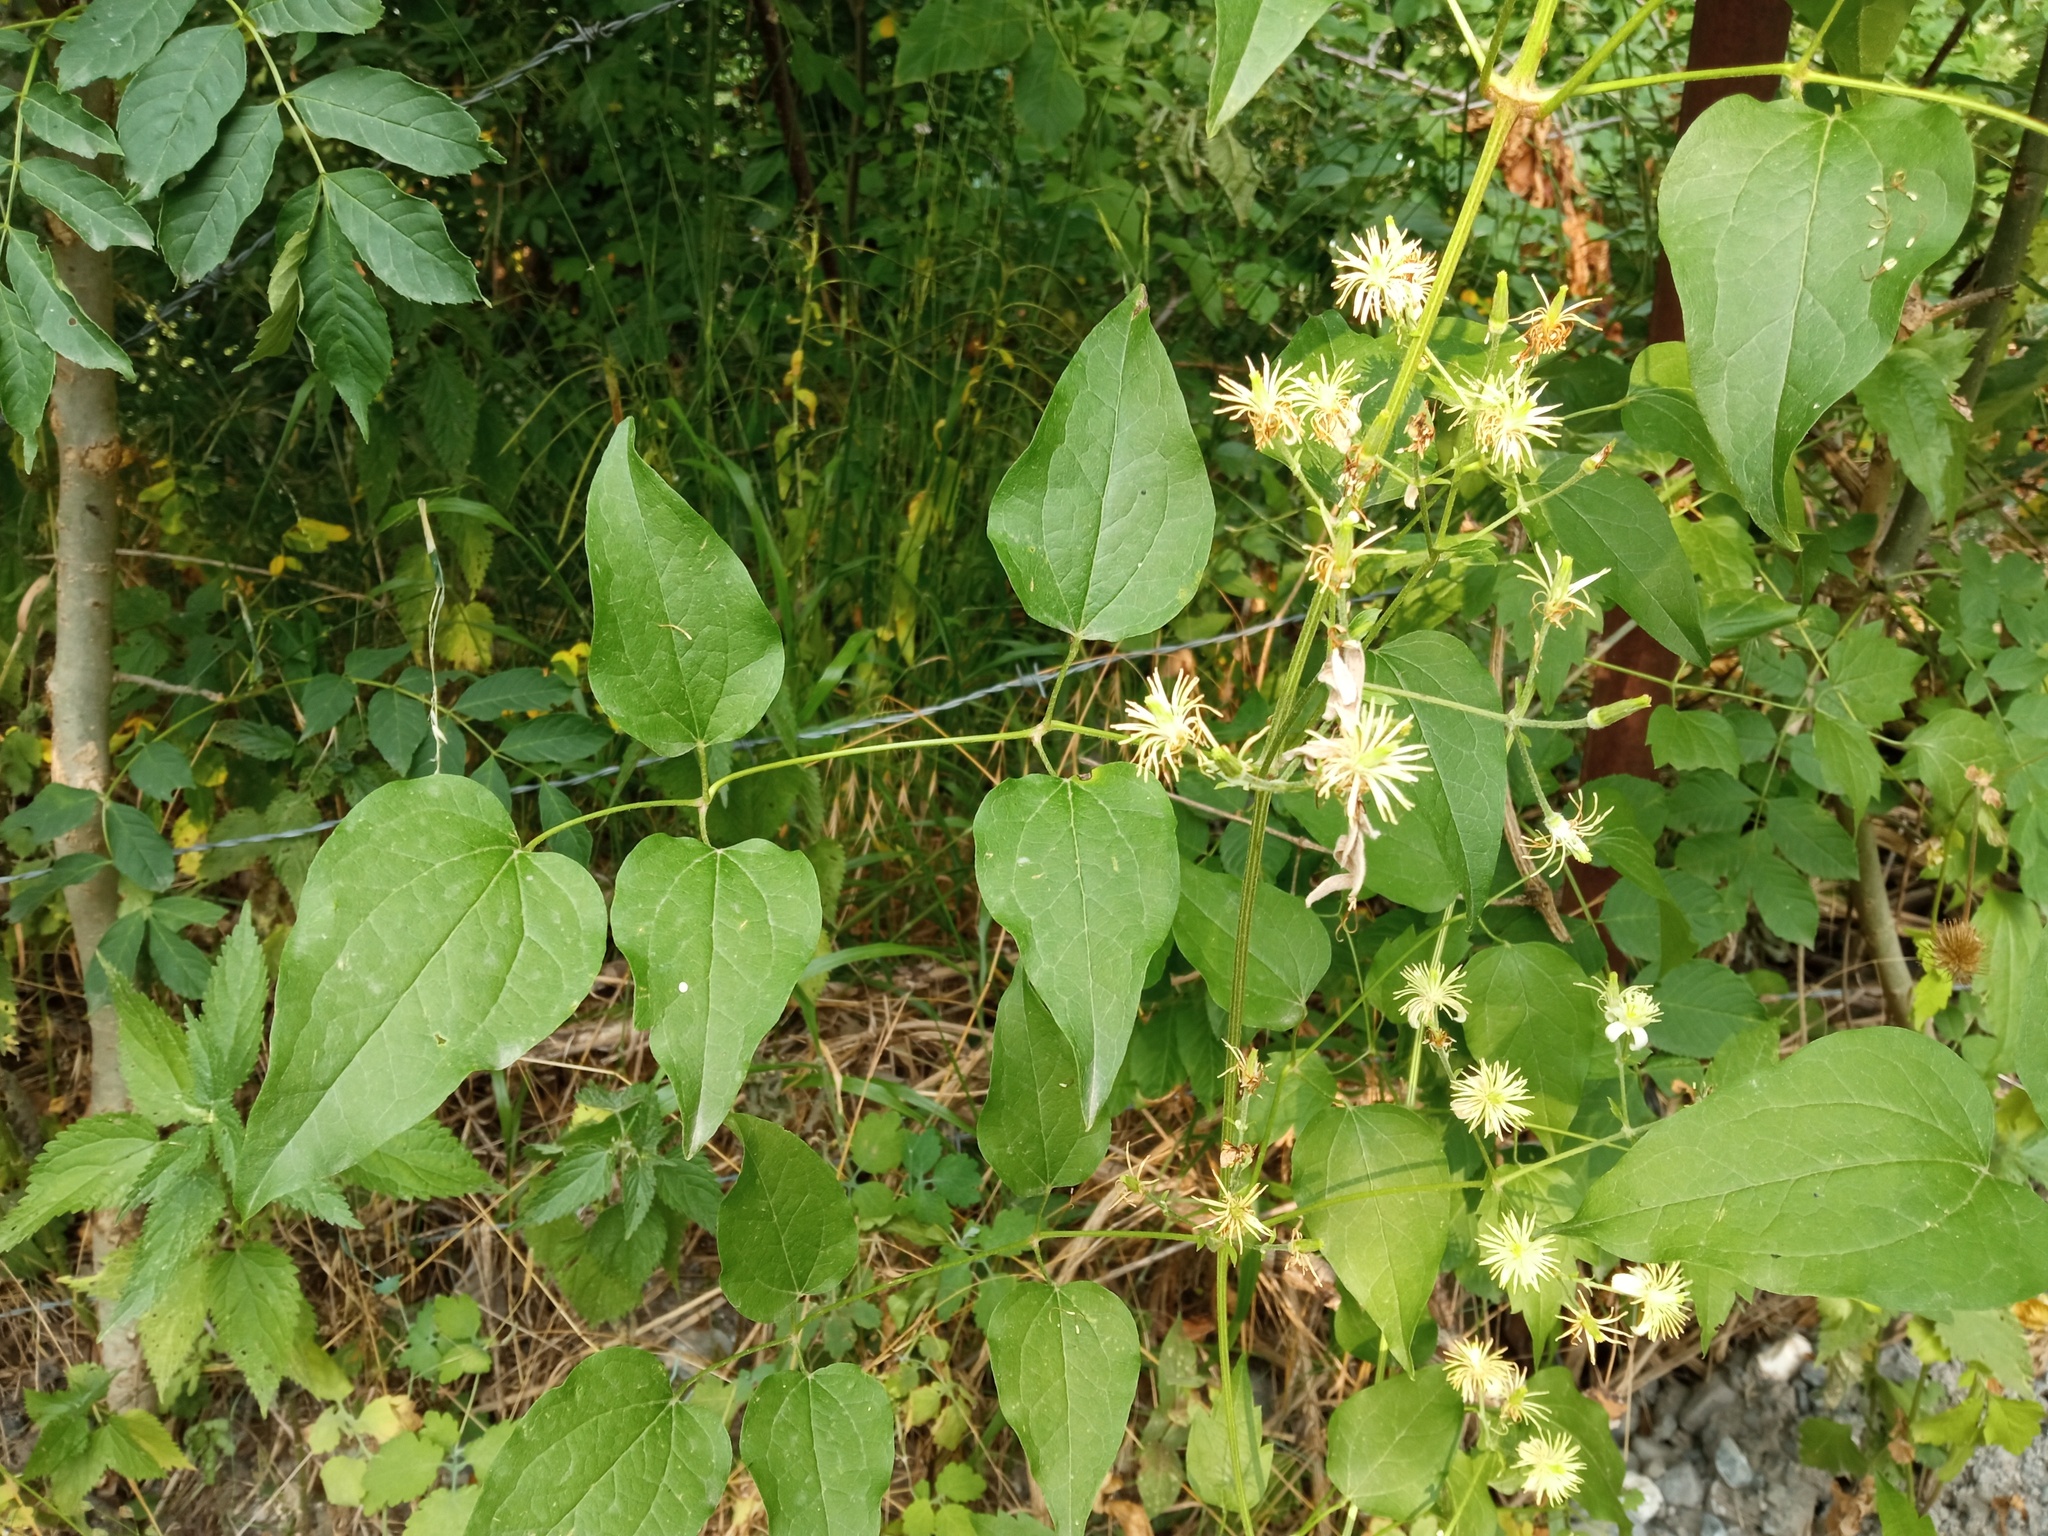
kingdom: Plantae
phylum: Tracheophyta
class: Magnoliopsida
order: Ranunculales
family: Ranunculaceae
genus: Clematis
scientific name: Clematis vitalba
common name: Evergreen clematis
